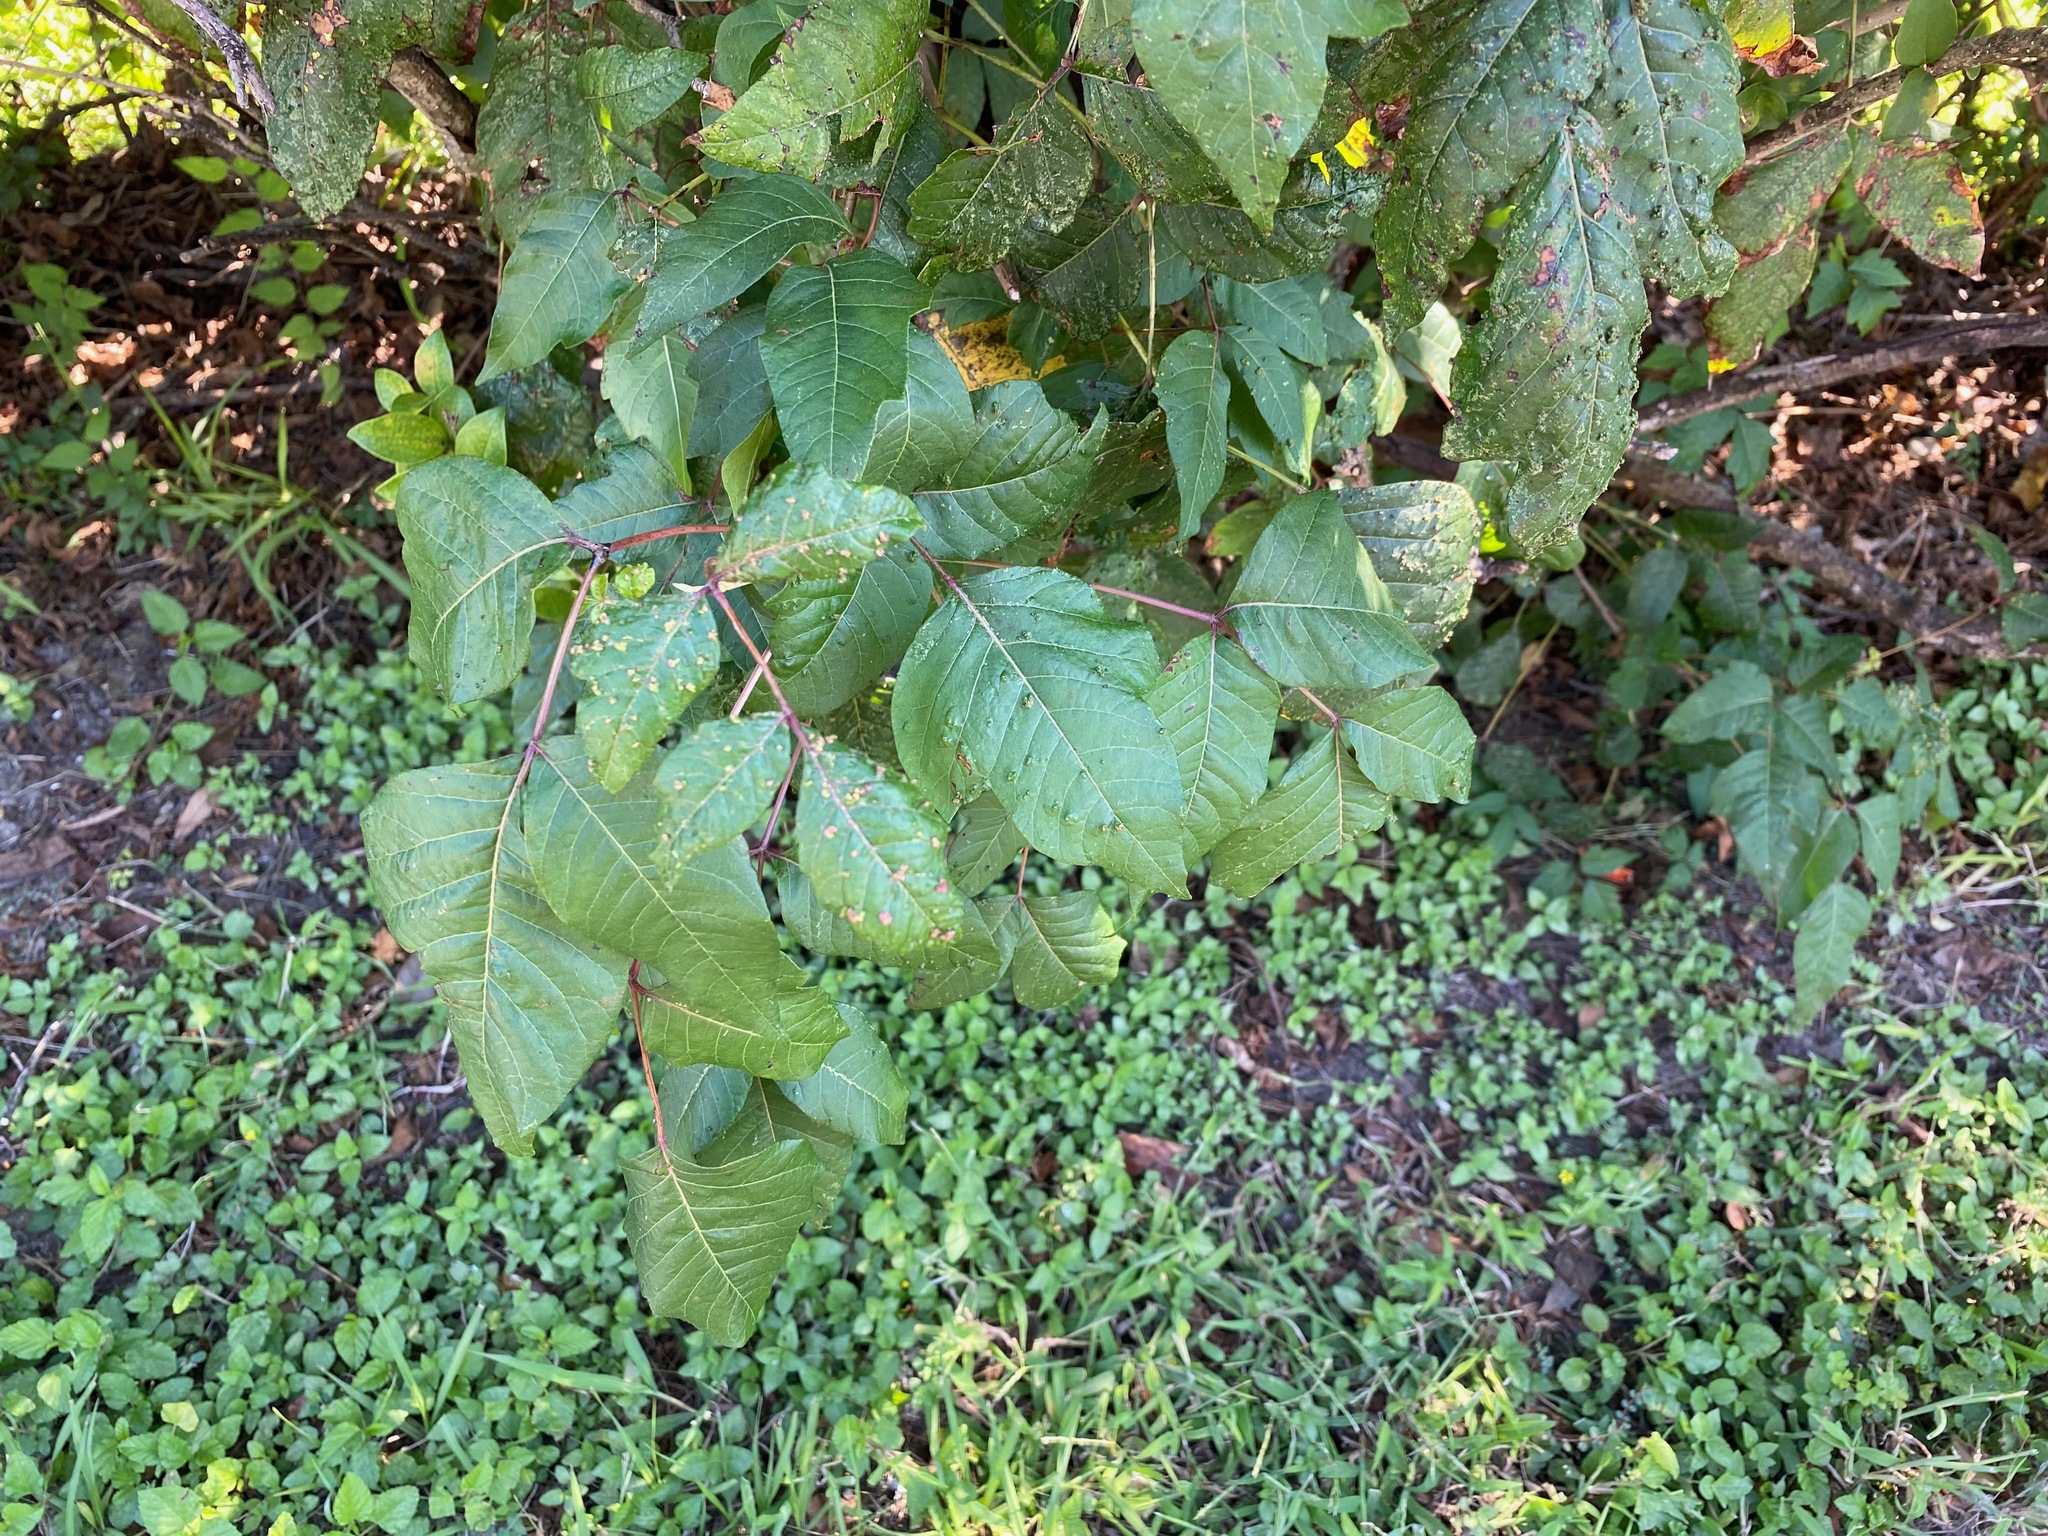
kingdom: Plantae
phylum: Tracheophyta
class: Magnoliopsida
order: Sapindales
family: Anacardiaceae
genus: Toxicodendron
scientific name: Toxicodendron radicans
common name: Poison ivy
